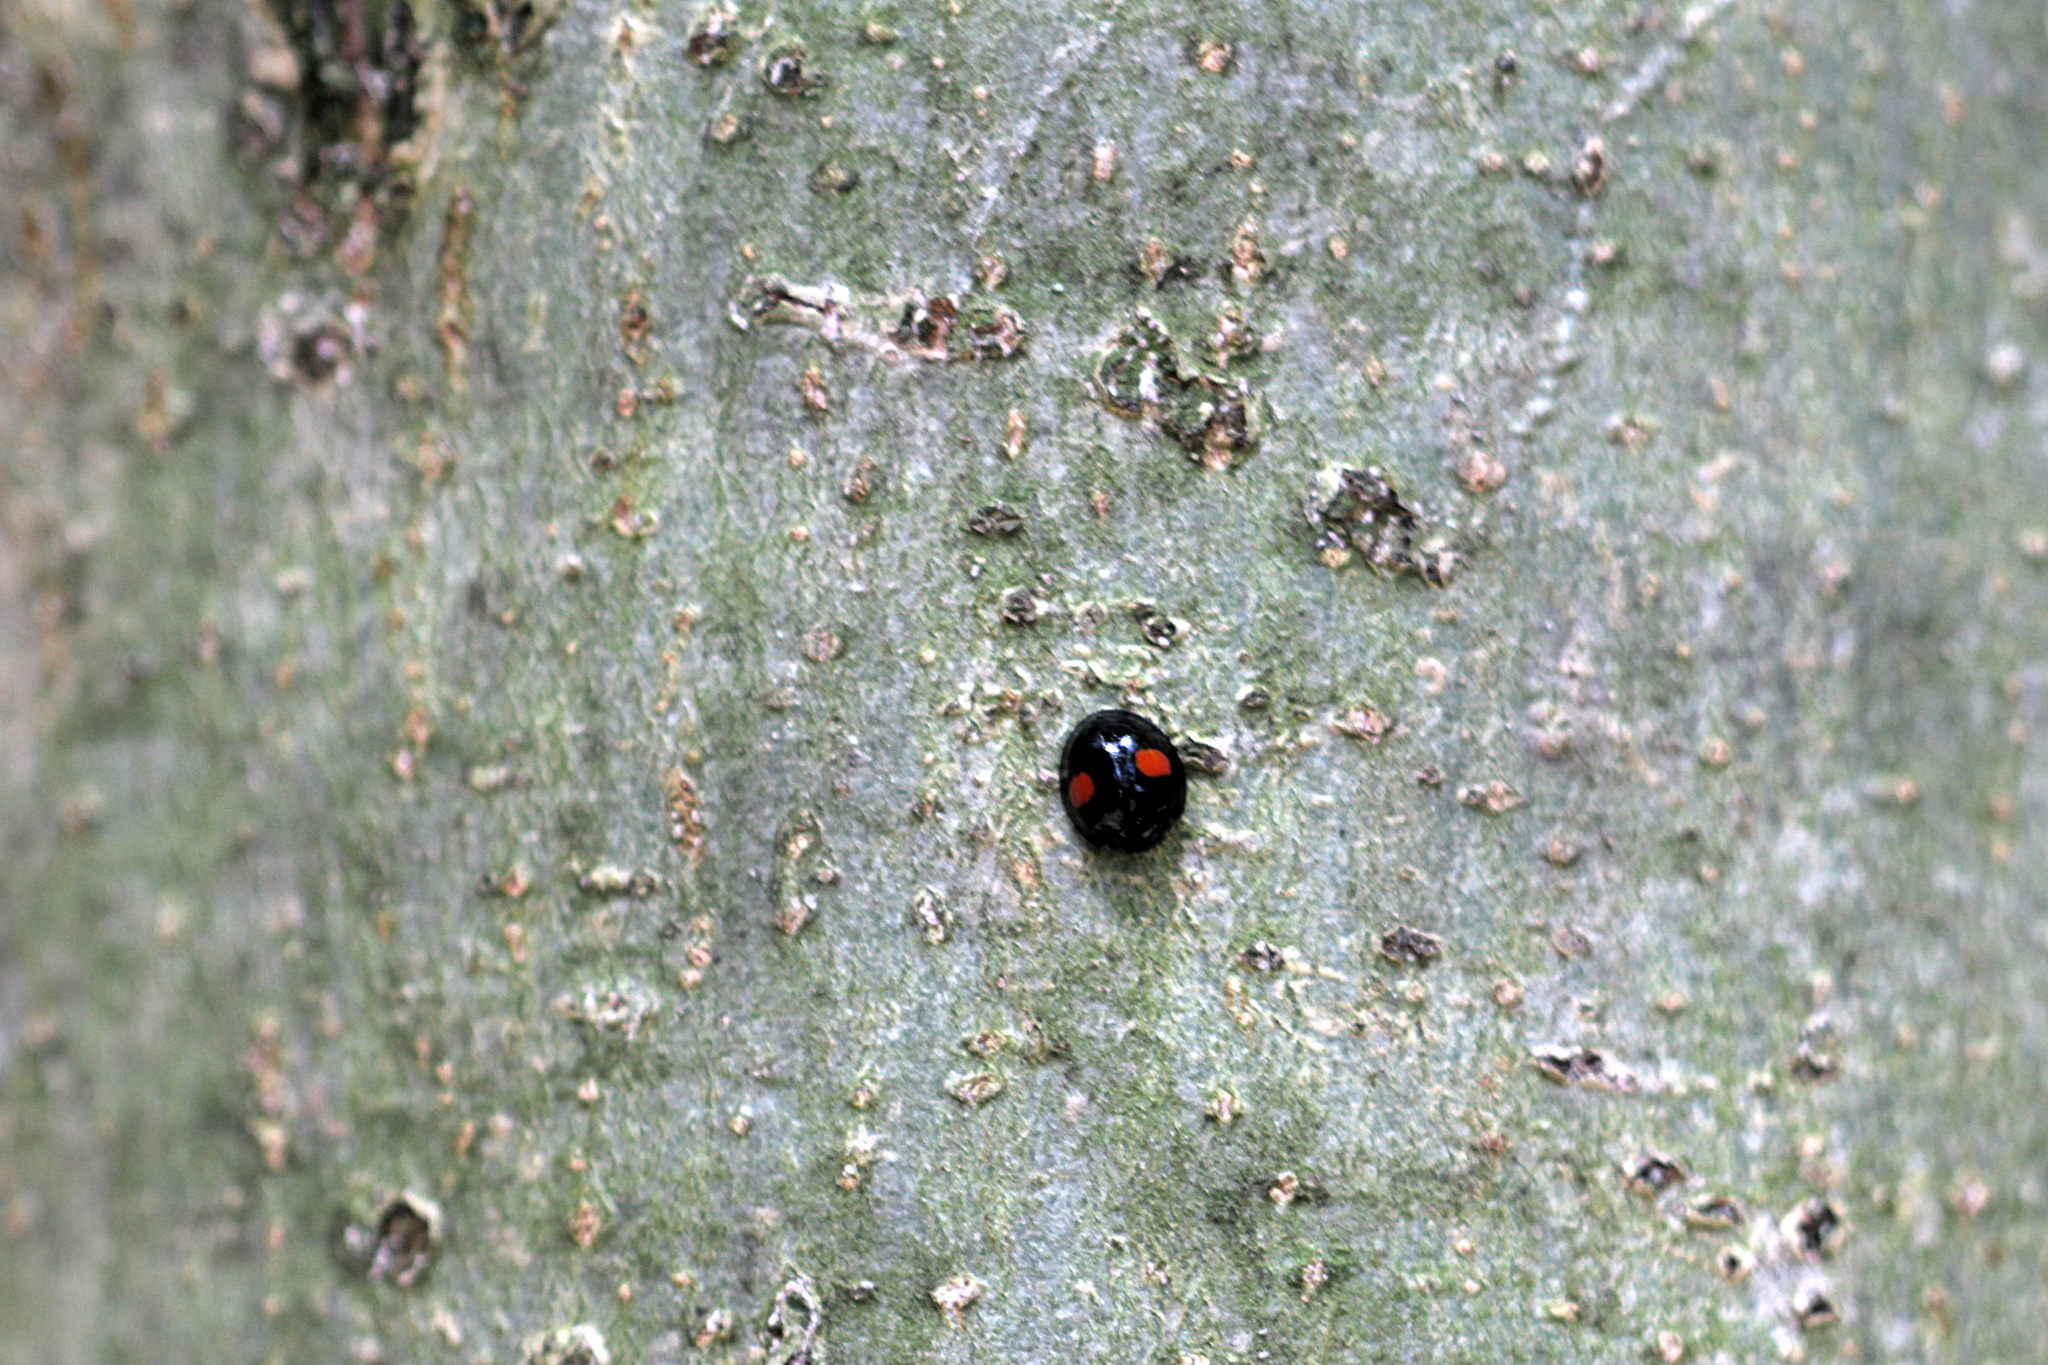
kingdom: Animalia
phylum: Arthropoda
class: Insecta
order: Coleoptera
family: Coccinellidae
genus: Chilocorus
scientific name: Chilocorus renipustulatus
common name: Kidney-spot ladybird
